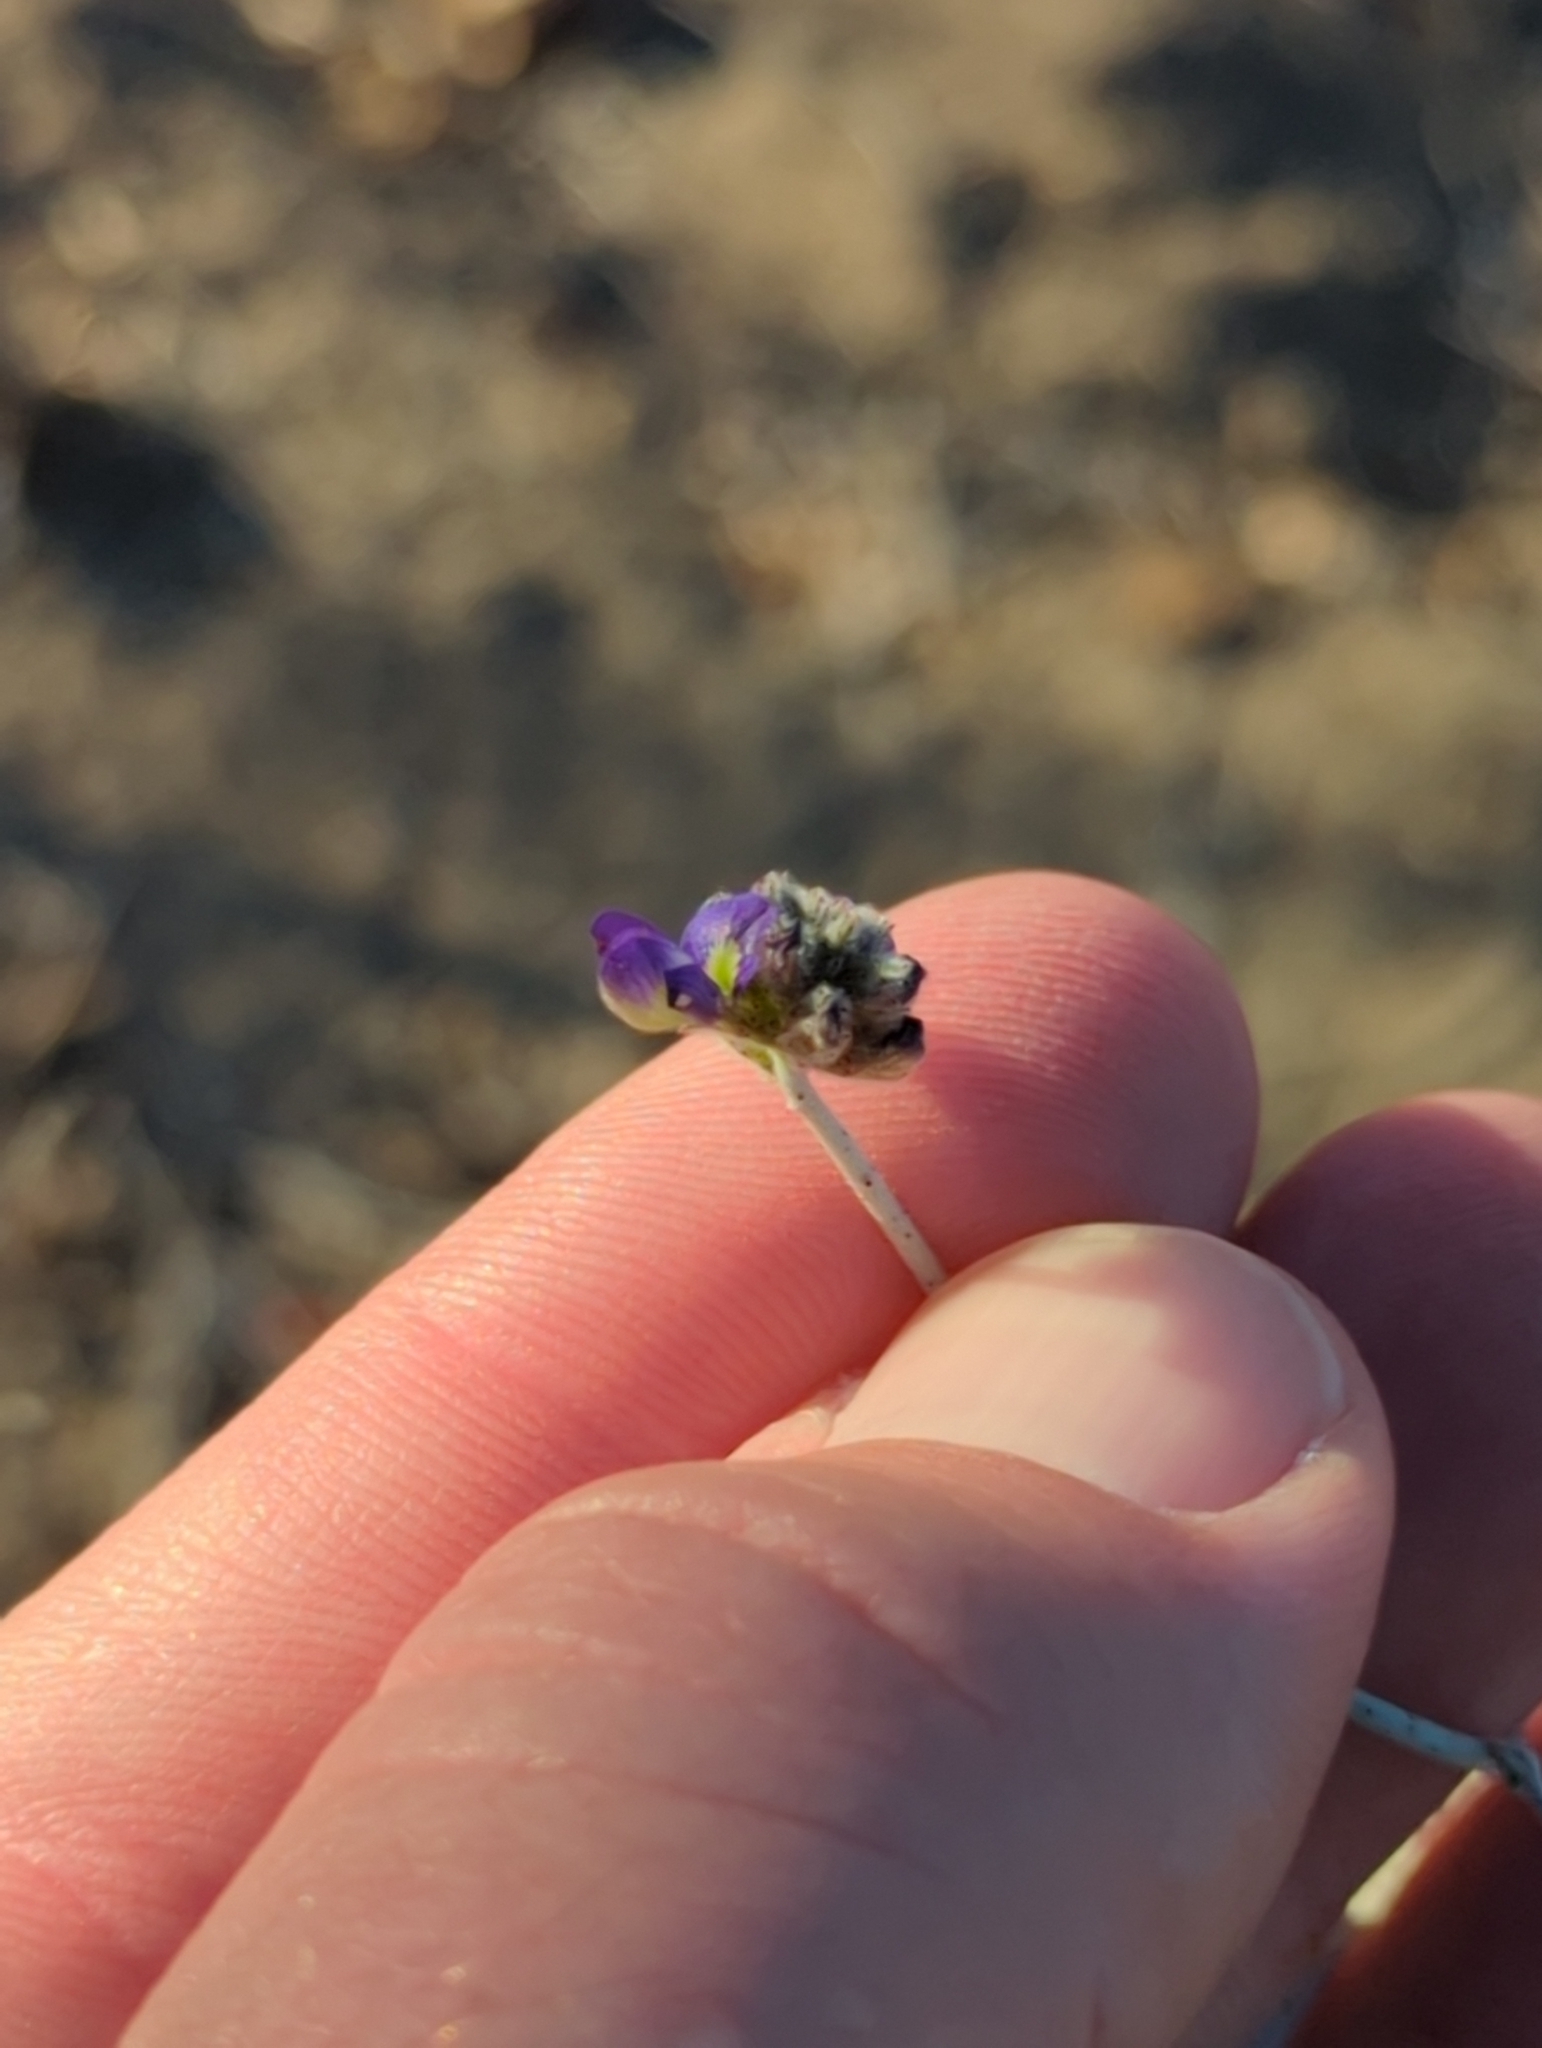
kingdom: Plantae
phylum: Tracheophyta
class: Magnoliopsida
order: Fabales
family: Fabaceae
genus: Psorothamnus
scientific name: Psorothamnus emoryi
